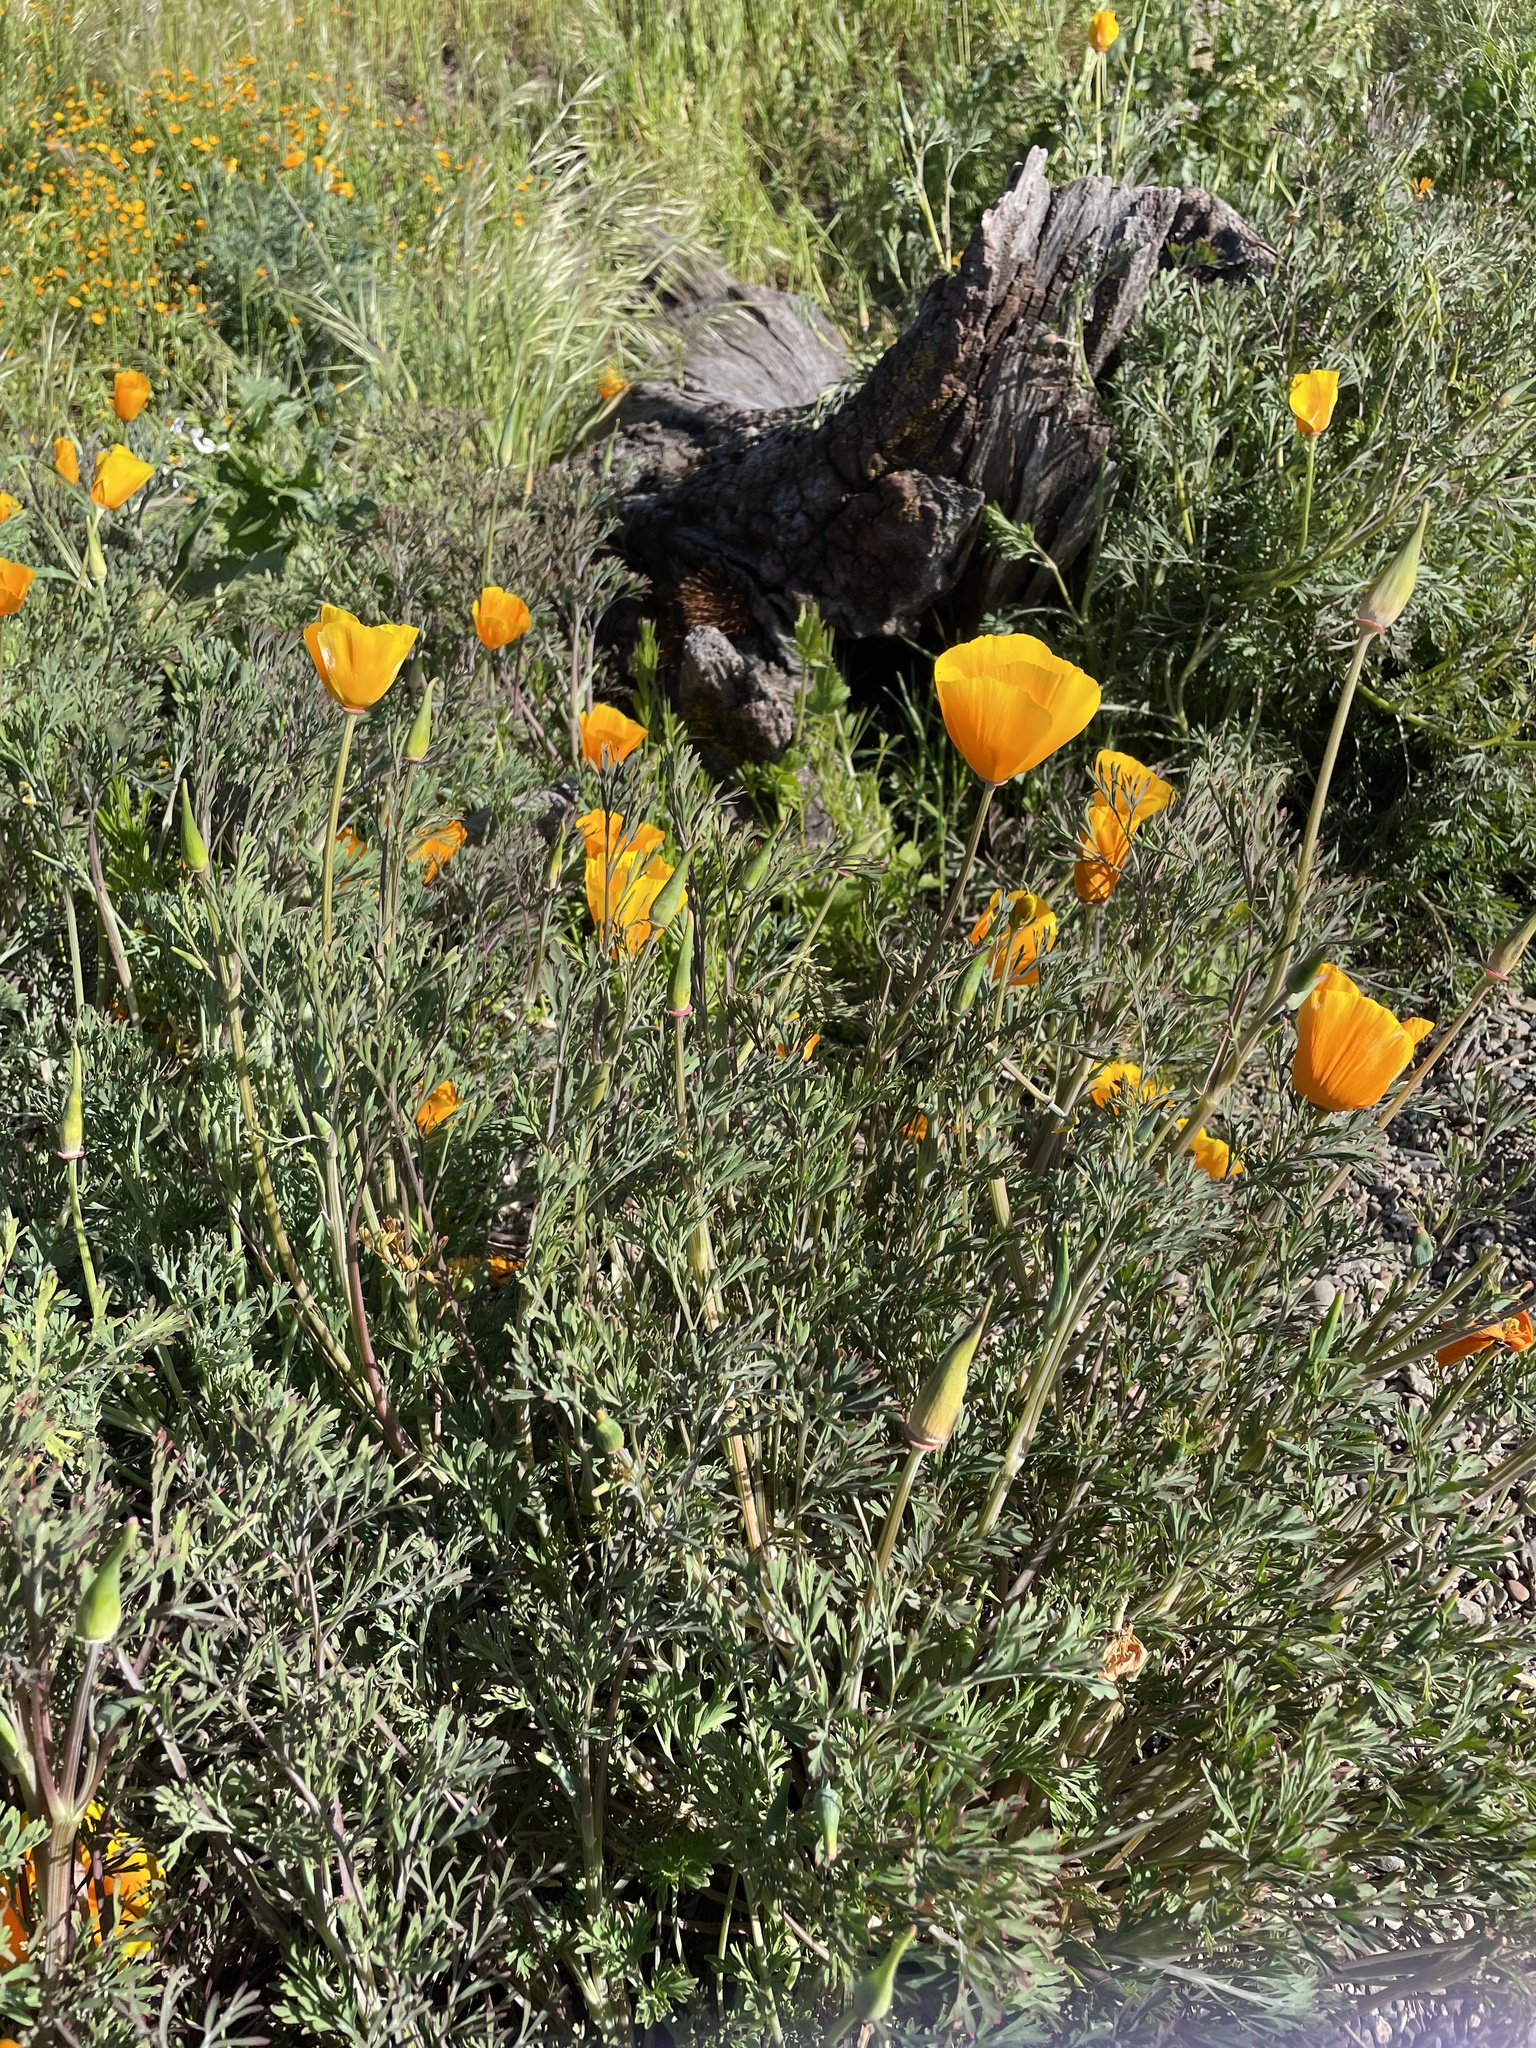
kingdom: Plantae
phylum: Tracheophyta
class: Magnoliopsida
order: Ranunculales
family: Papaveraceae
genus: Eschscholzia
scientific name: Eschscholzia californica
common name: California poppy
